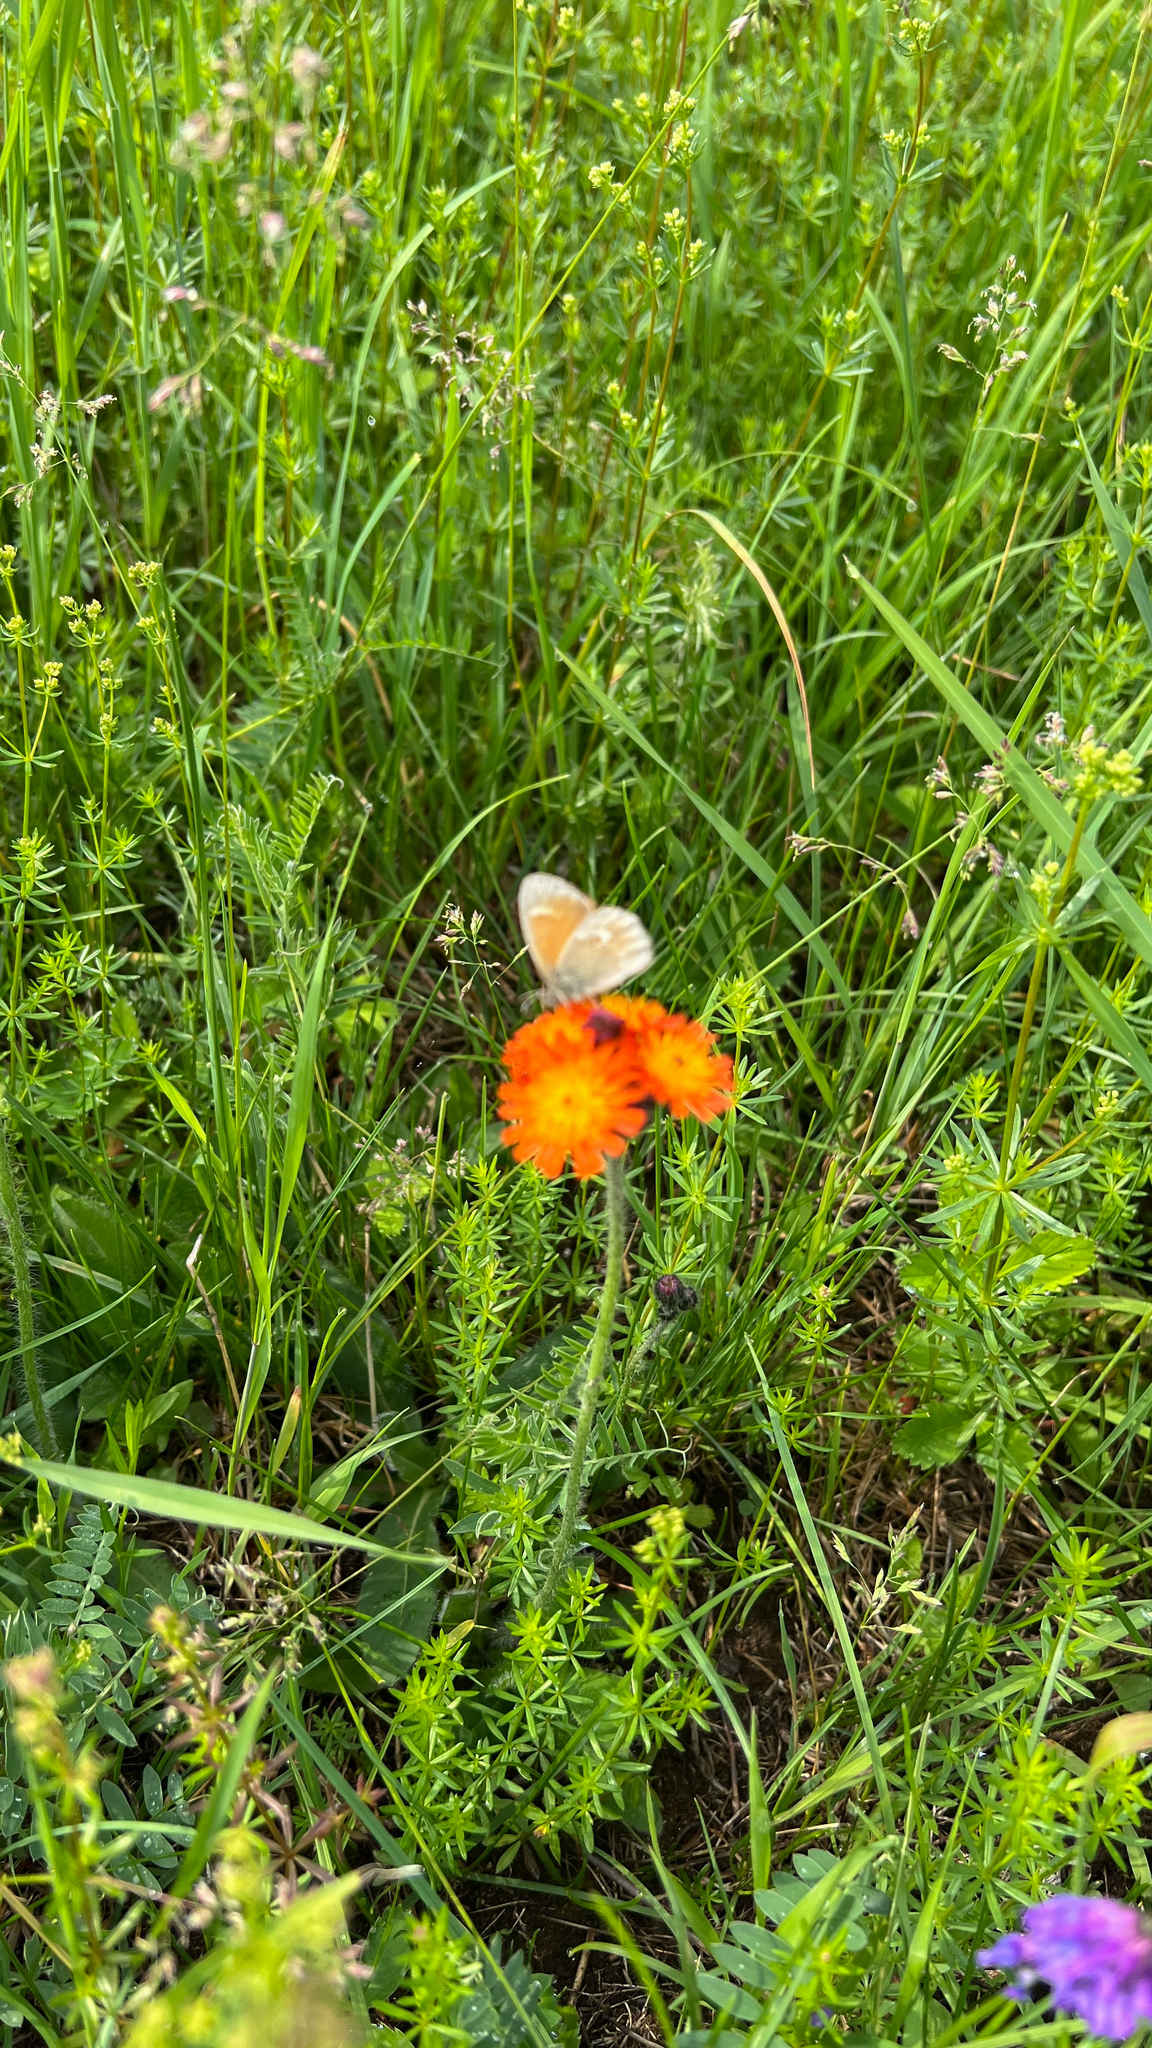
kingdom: Plantae
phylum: Tracheophyta
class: Magnoliopsida
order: Asterales
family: Asteraceae
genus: Pilosella
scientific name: Pilosella aurantiaca
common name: Fox-and-cubs
